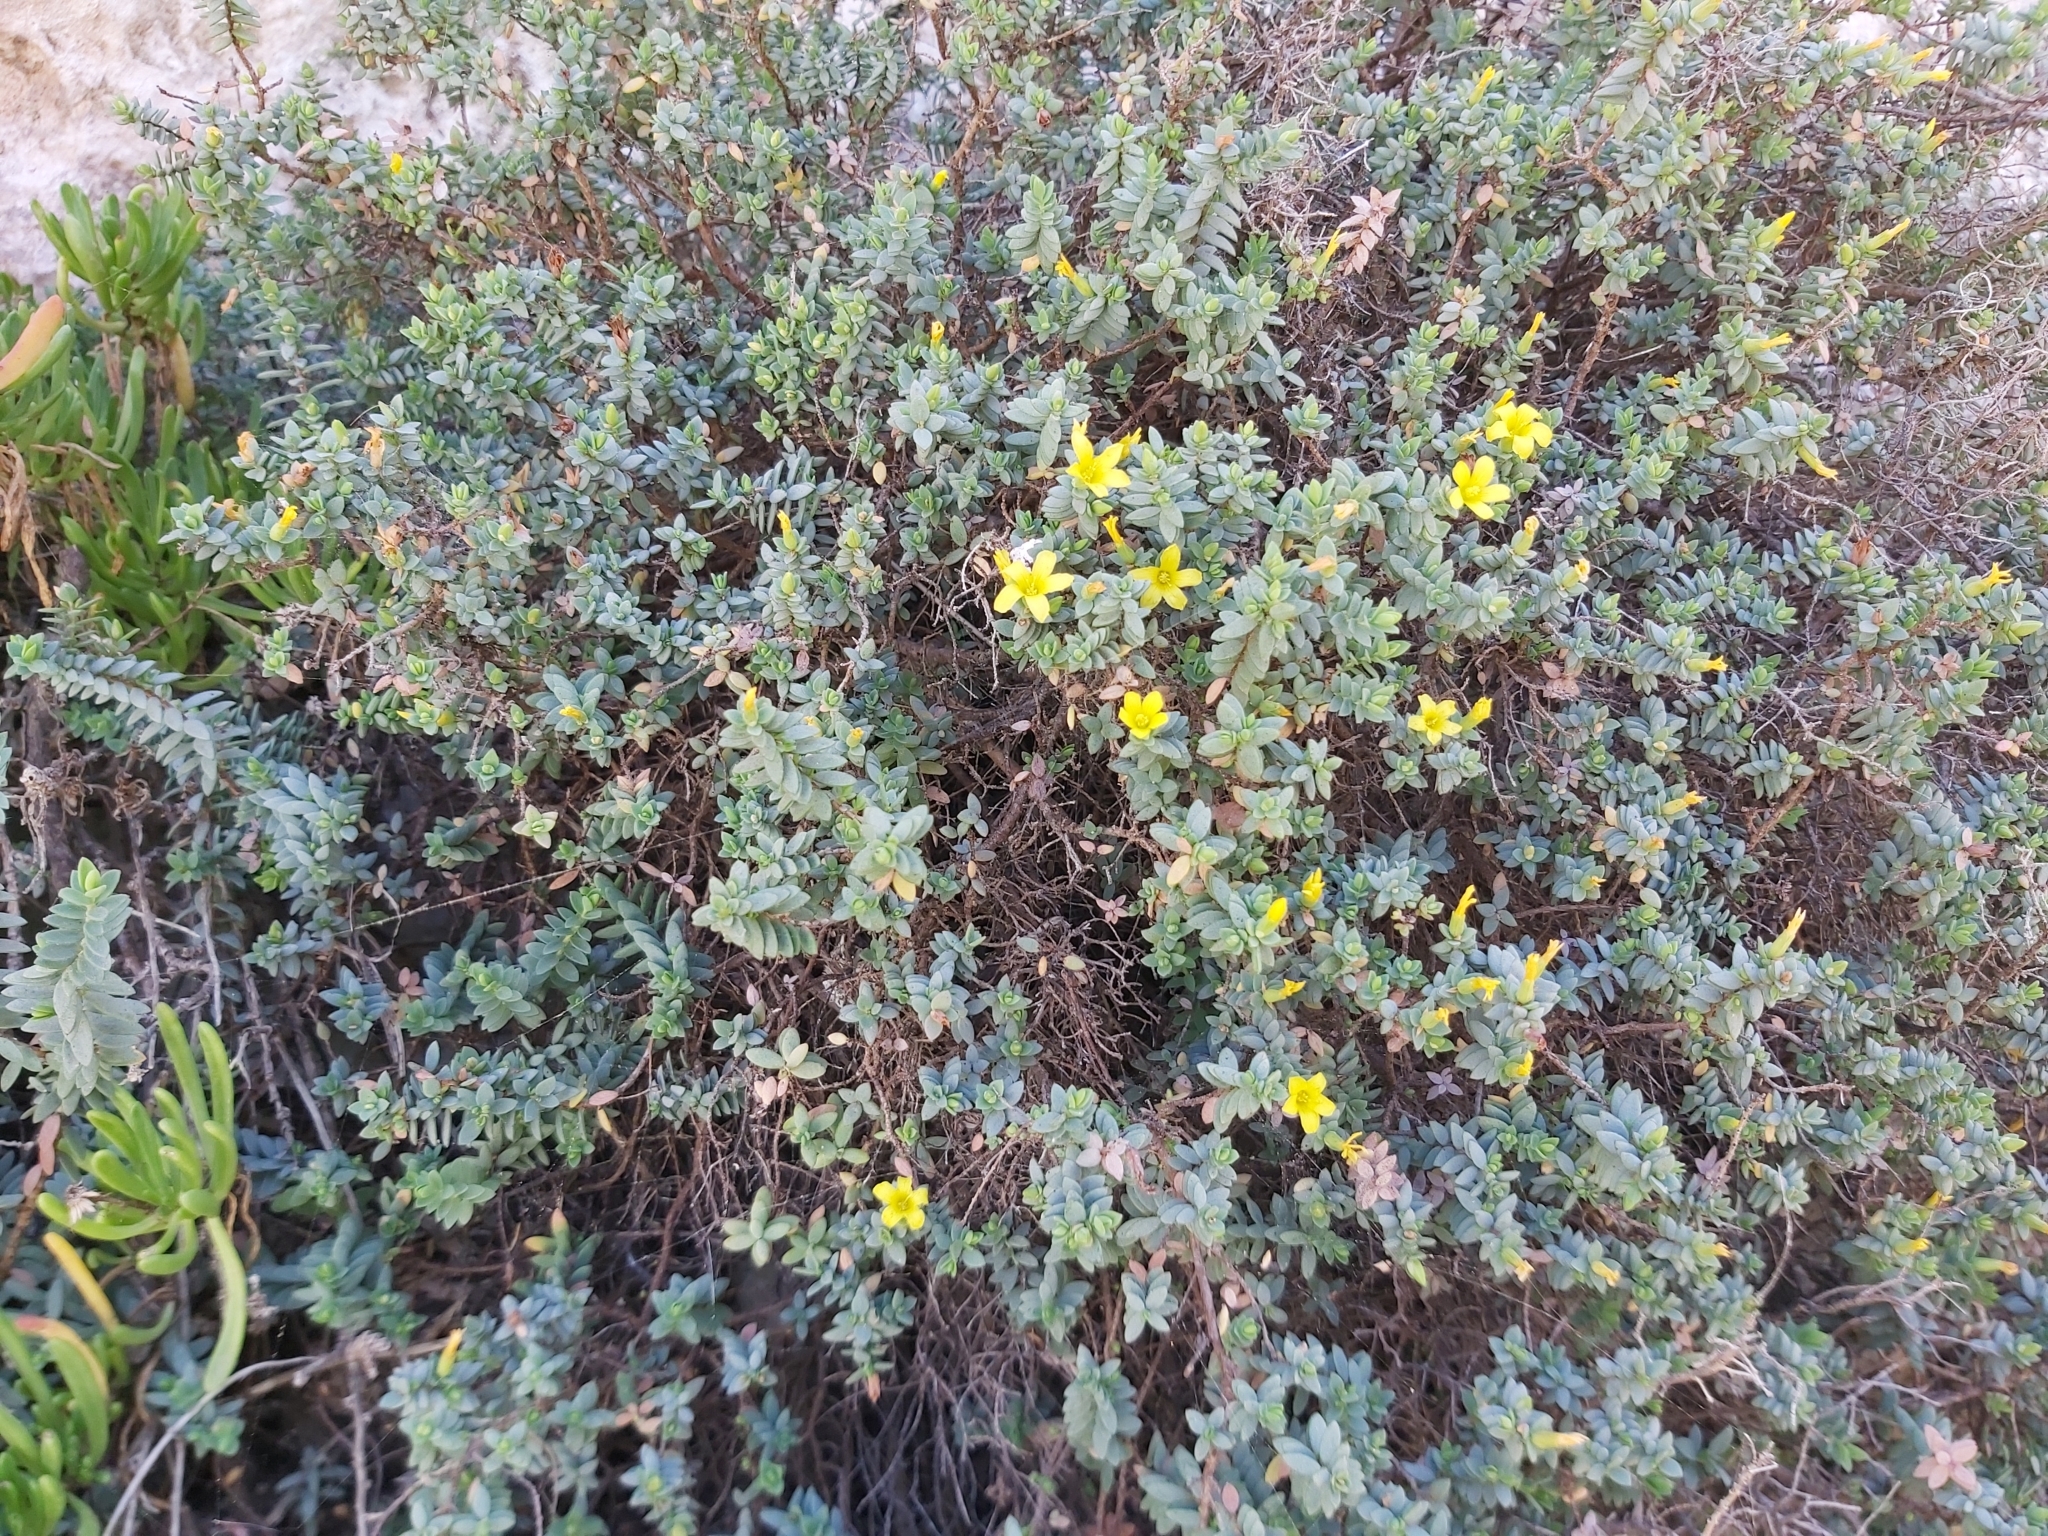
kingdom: Plantae
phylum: Tracheophyta
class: Magnoliopsida
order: Malpighiales
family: Hypericaceae
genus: Hypericum
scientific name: Hypericum aegypticum
